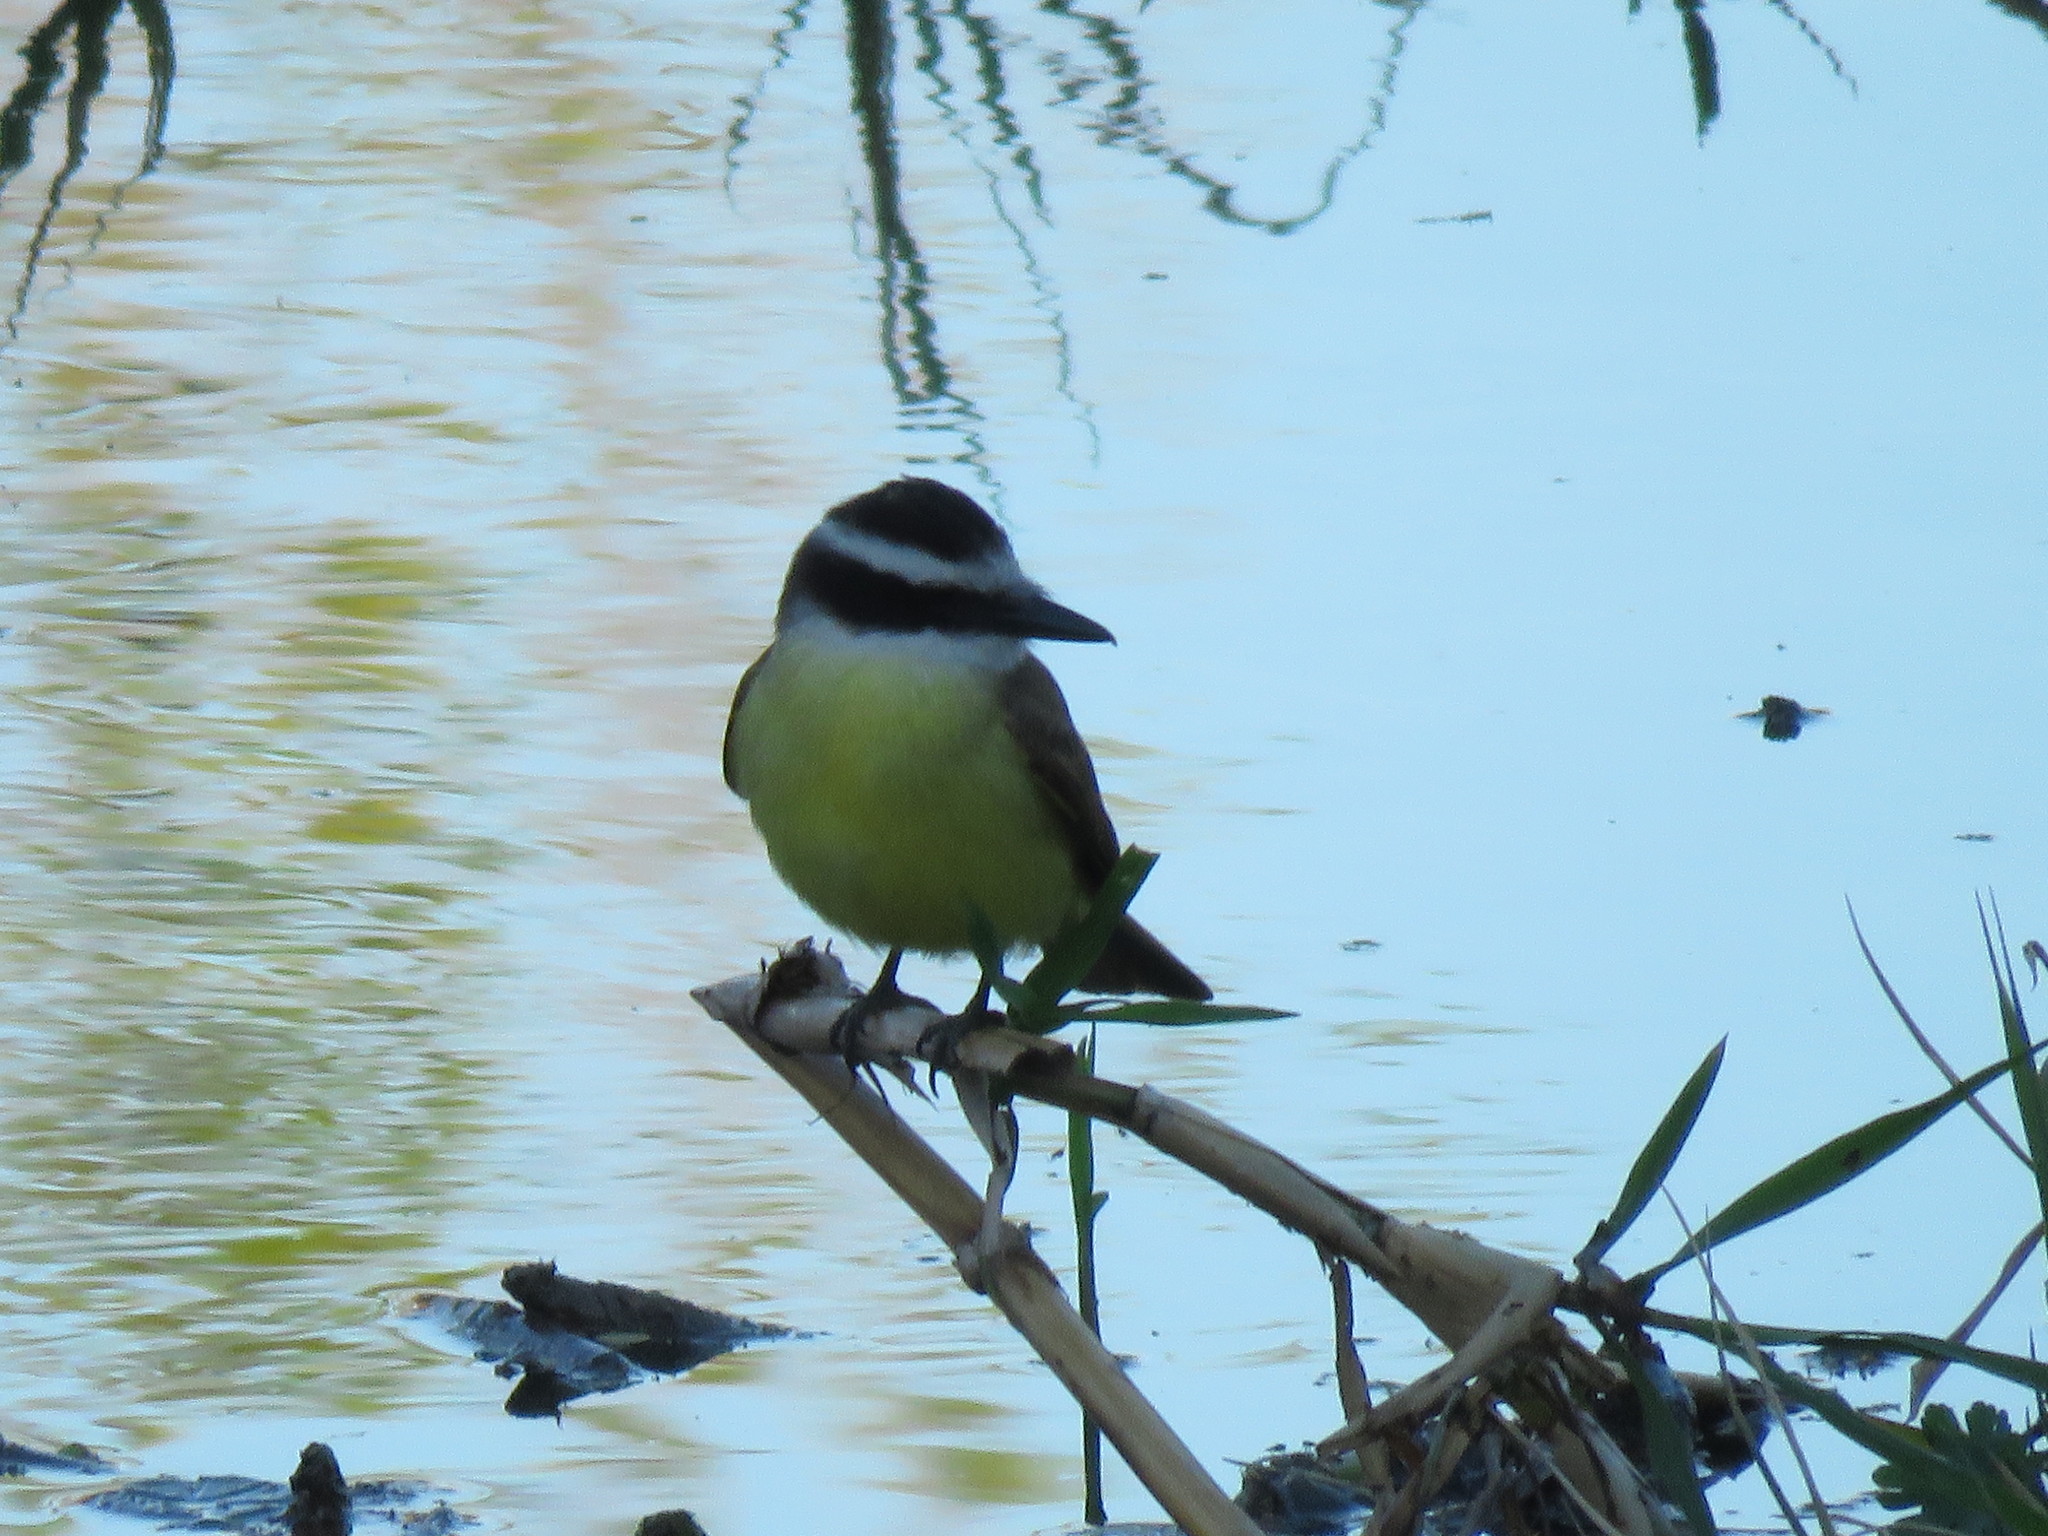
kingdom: Animalia
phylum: Chordata
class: Aves
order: Passeriformes
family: Tyrannidae
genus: Pitangus
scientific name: Pitangus sulphuratus
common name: Great kiskadee
